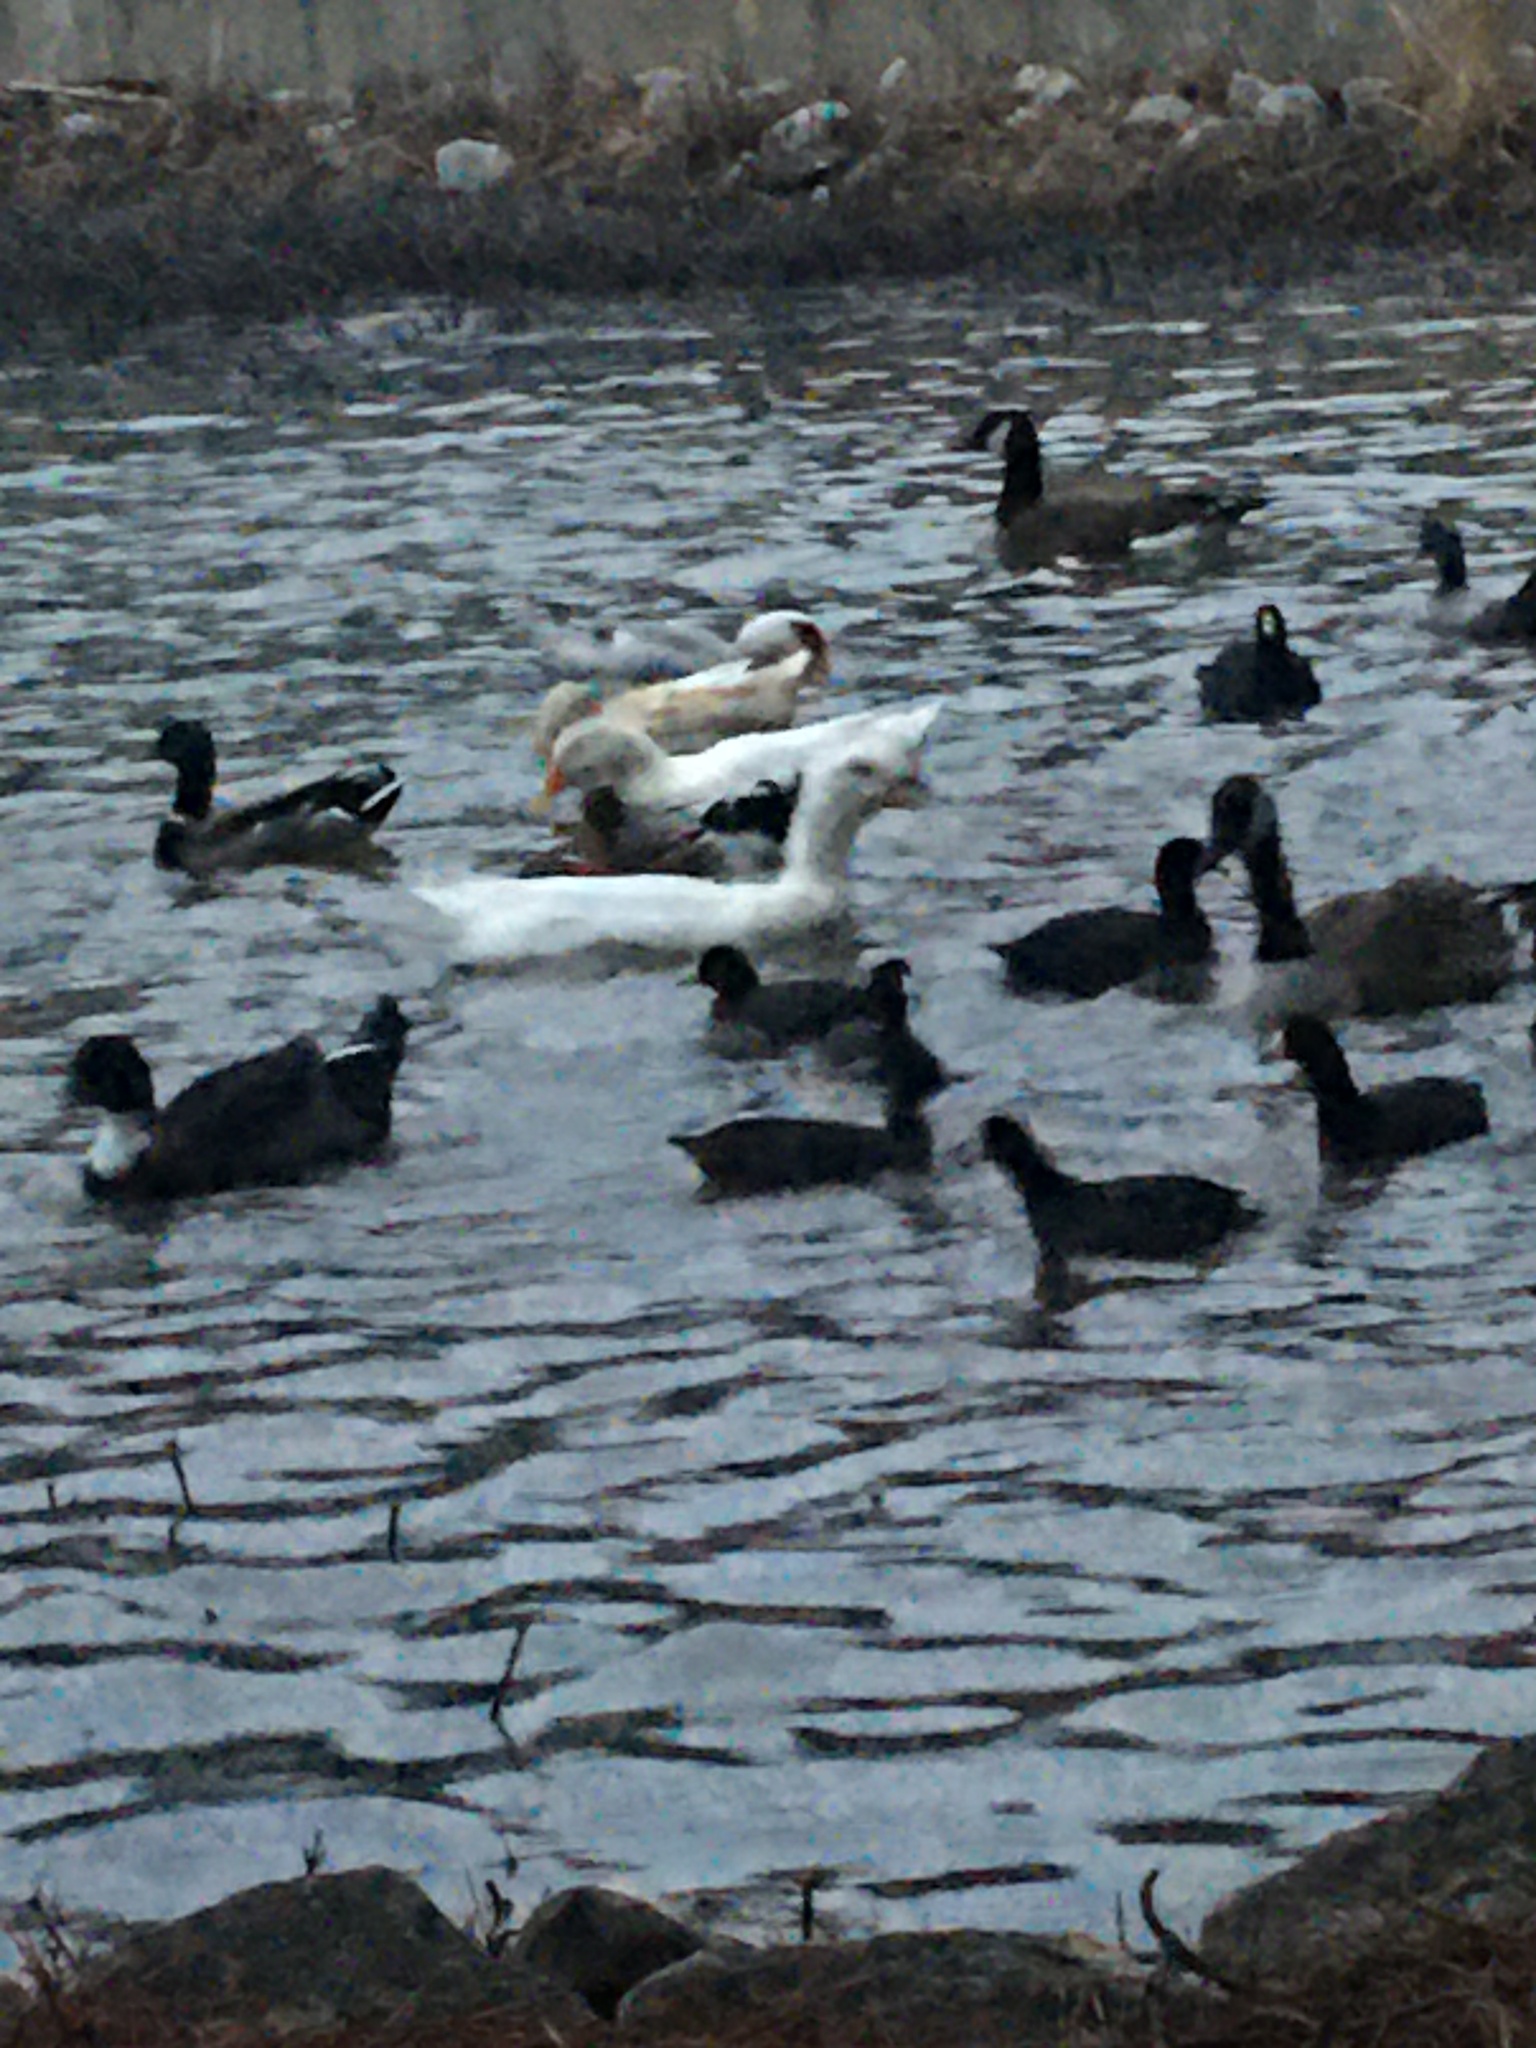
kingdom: Animalia
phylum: Chordata
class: Aves
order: Gruiformes
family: Rallidae
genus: Fulica
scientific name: Fulica americana
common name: American coot
